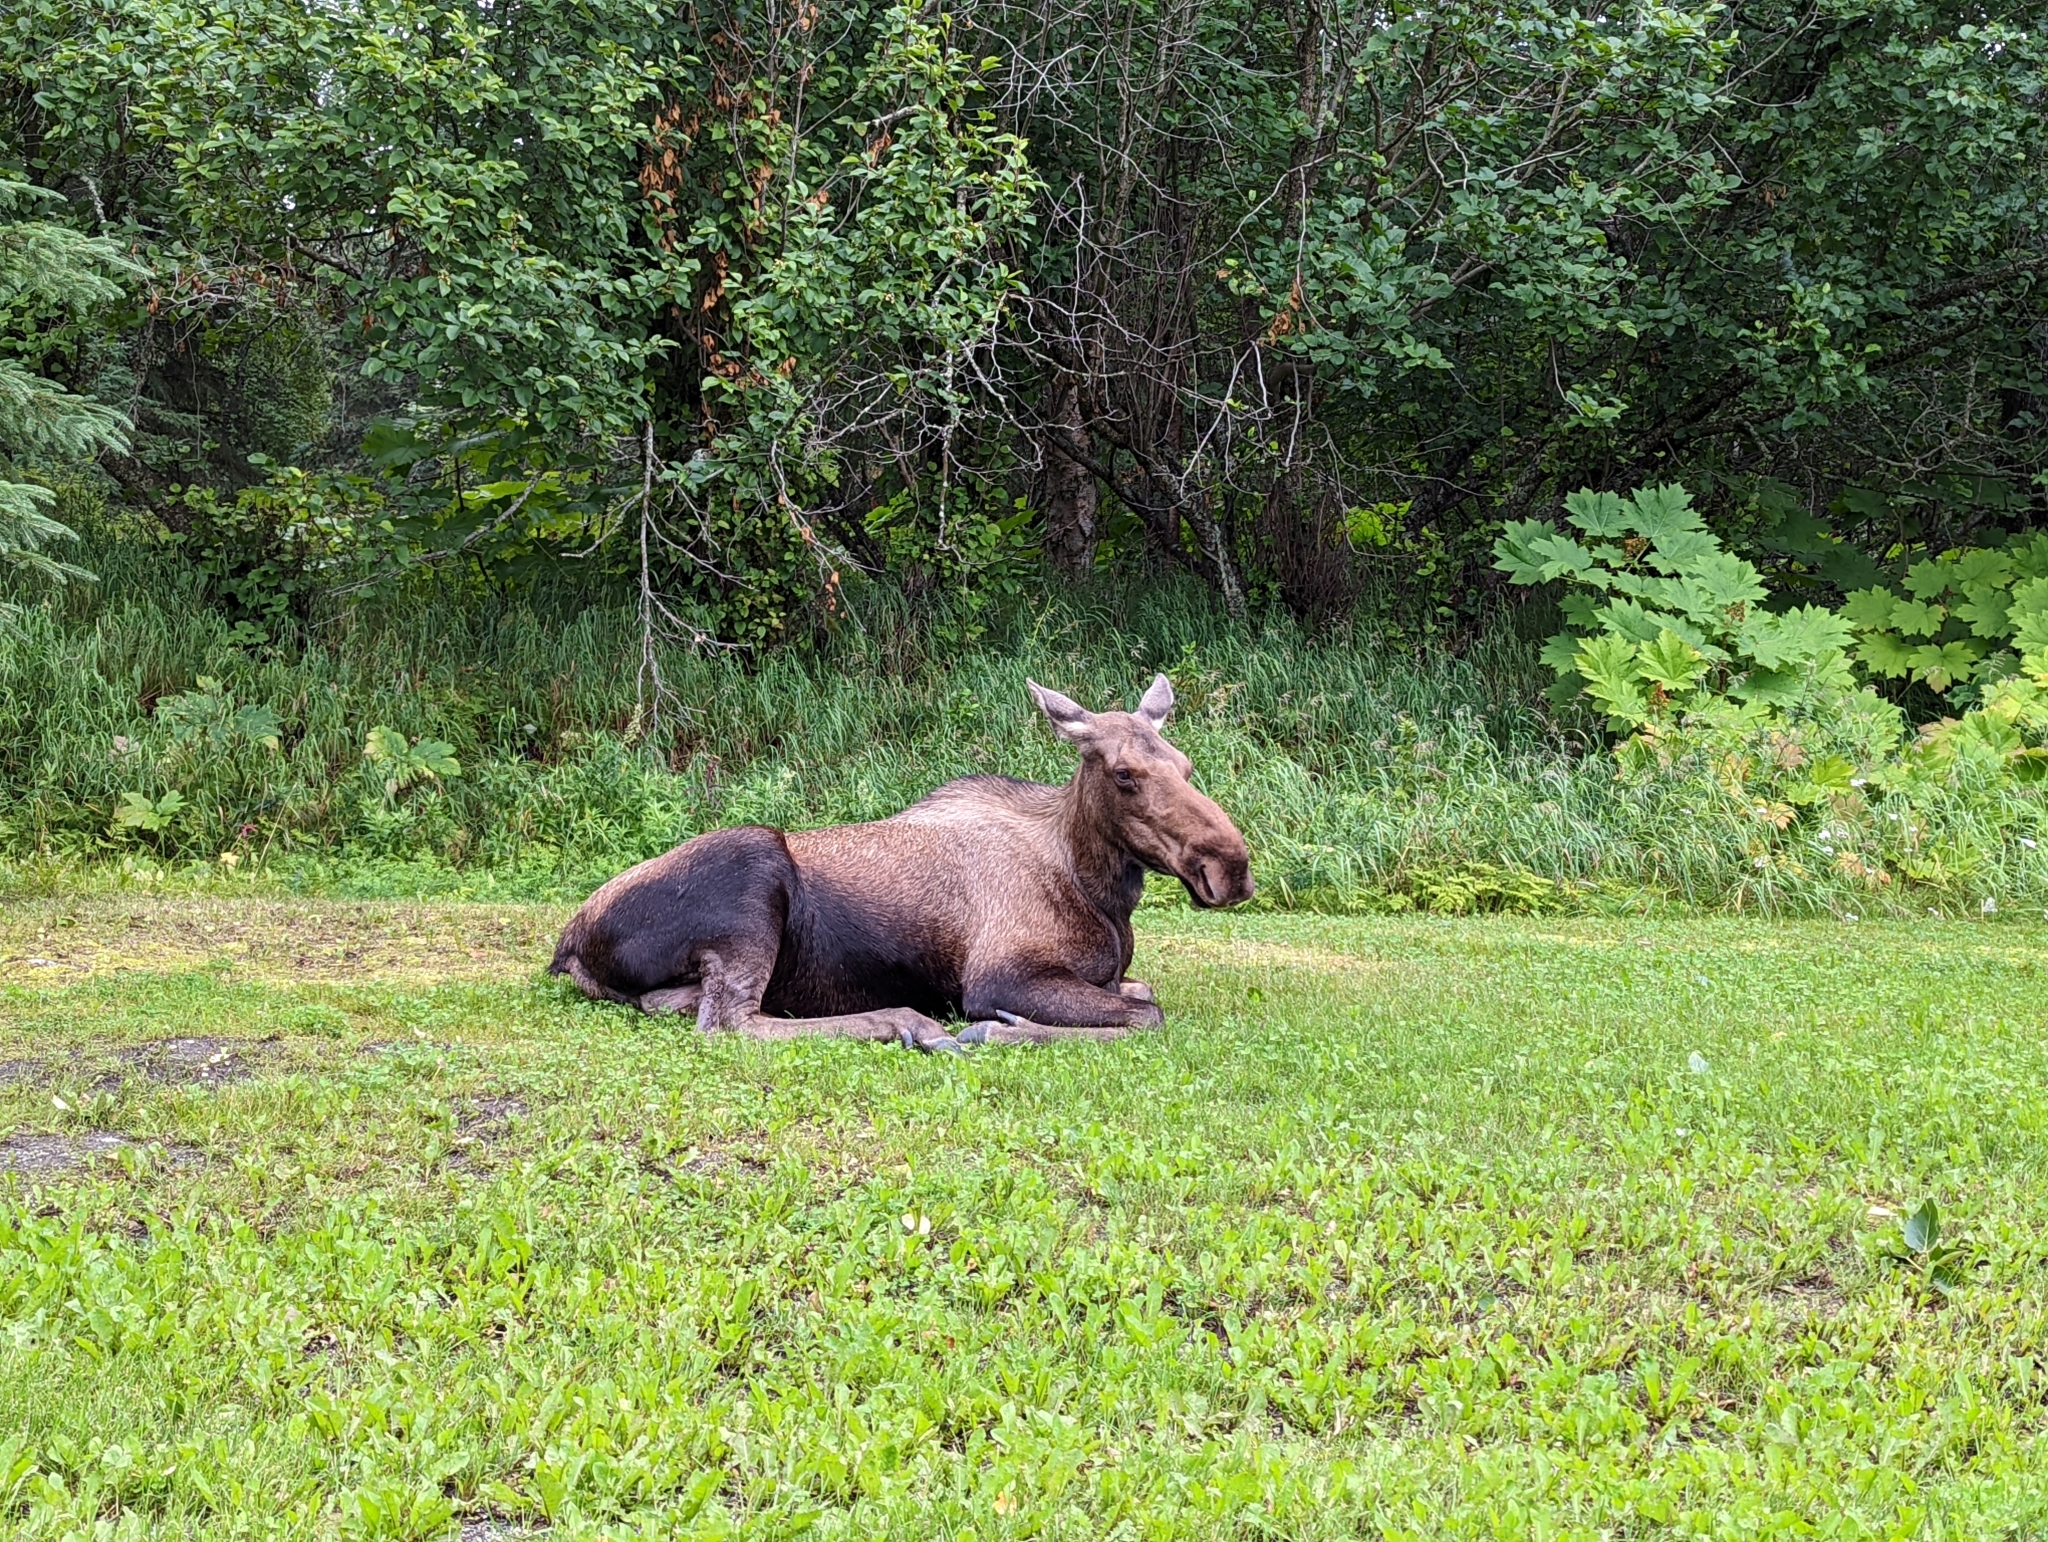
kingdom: Animalia
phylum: Chordata
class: Mammalia
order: Artiodactyla
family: Cervidae
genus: Alces
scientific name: Alces alces
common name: Moose
